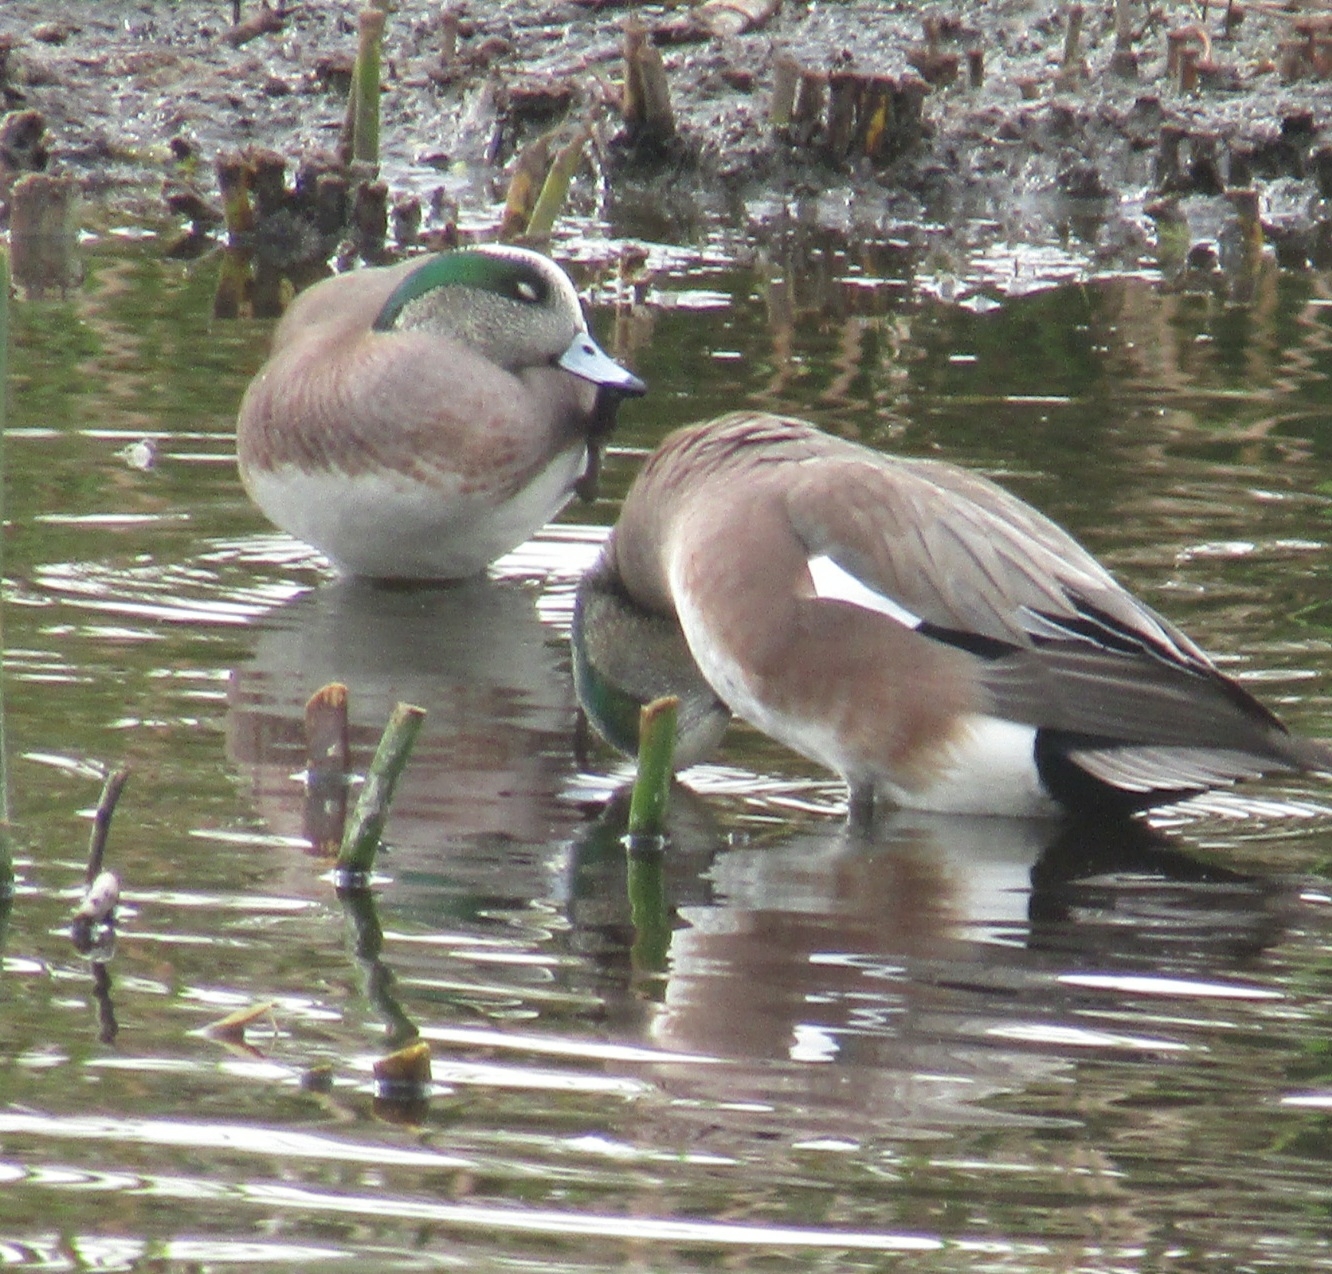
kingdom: Animalia
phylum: Chordata
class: Aves
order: Anseriformes
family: Anatidae
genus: Mareca
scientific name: Mareca americana
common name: American wigeon
